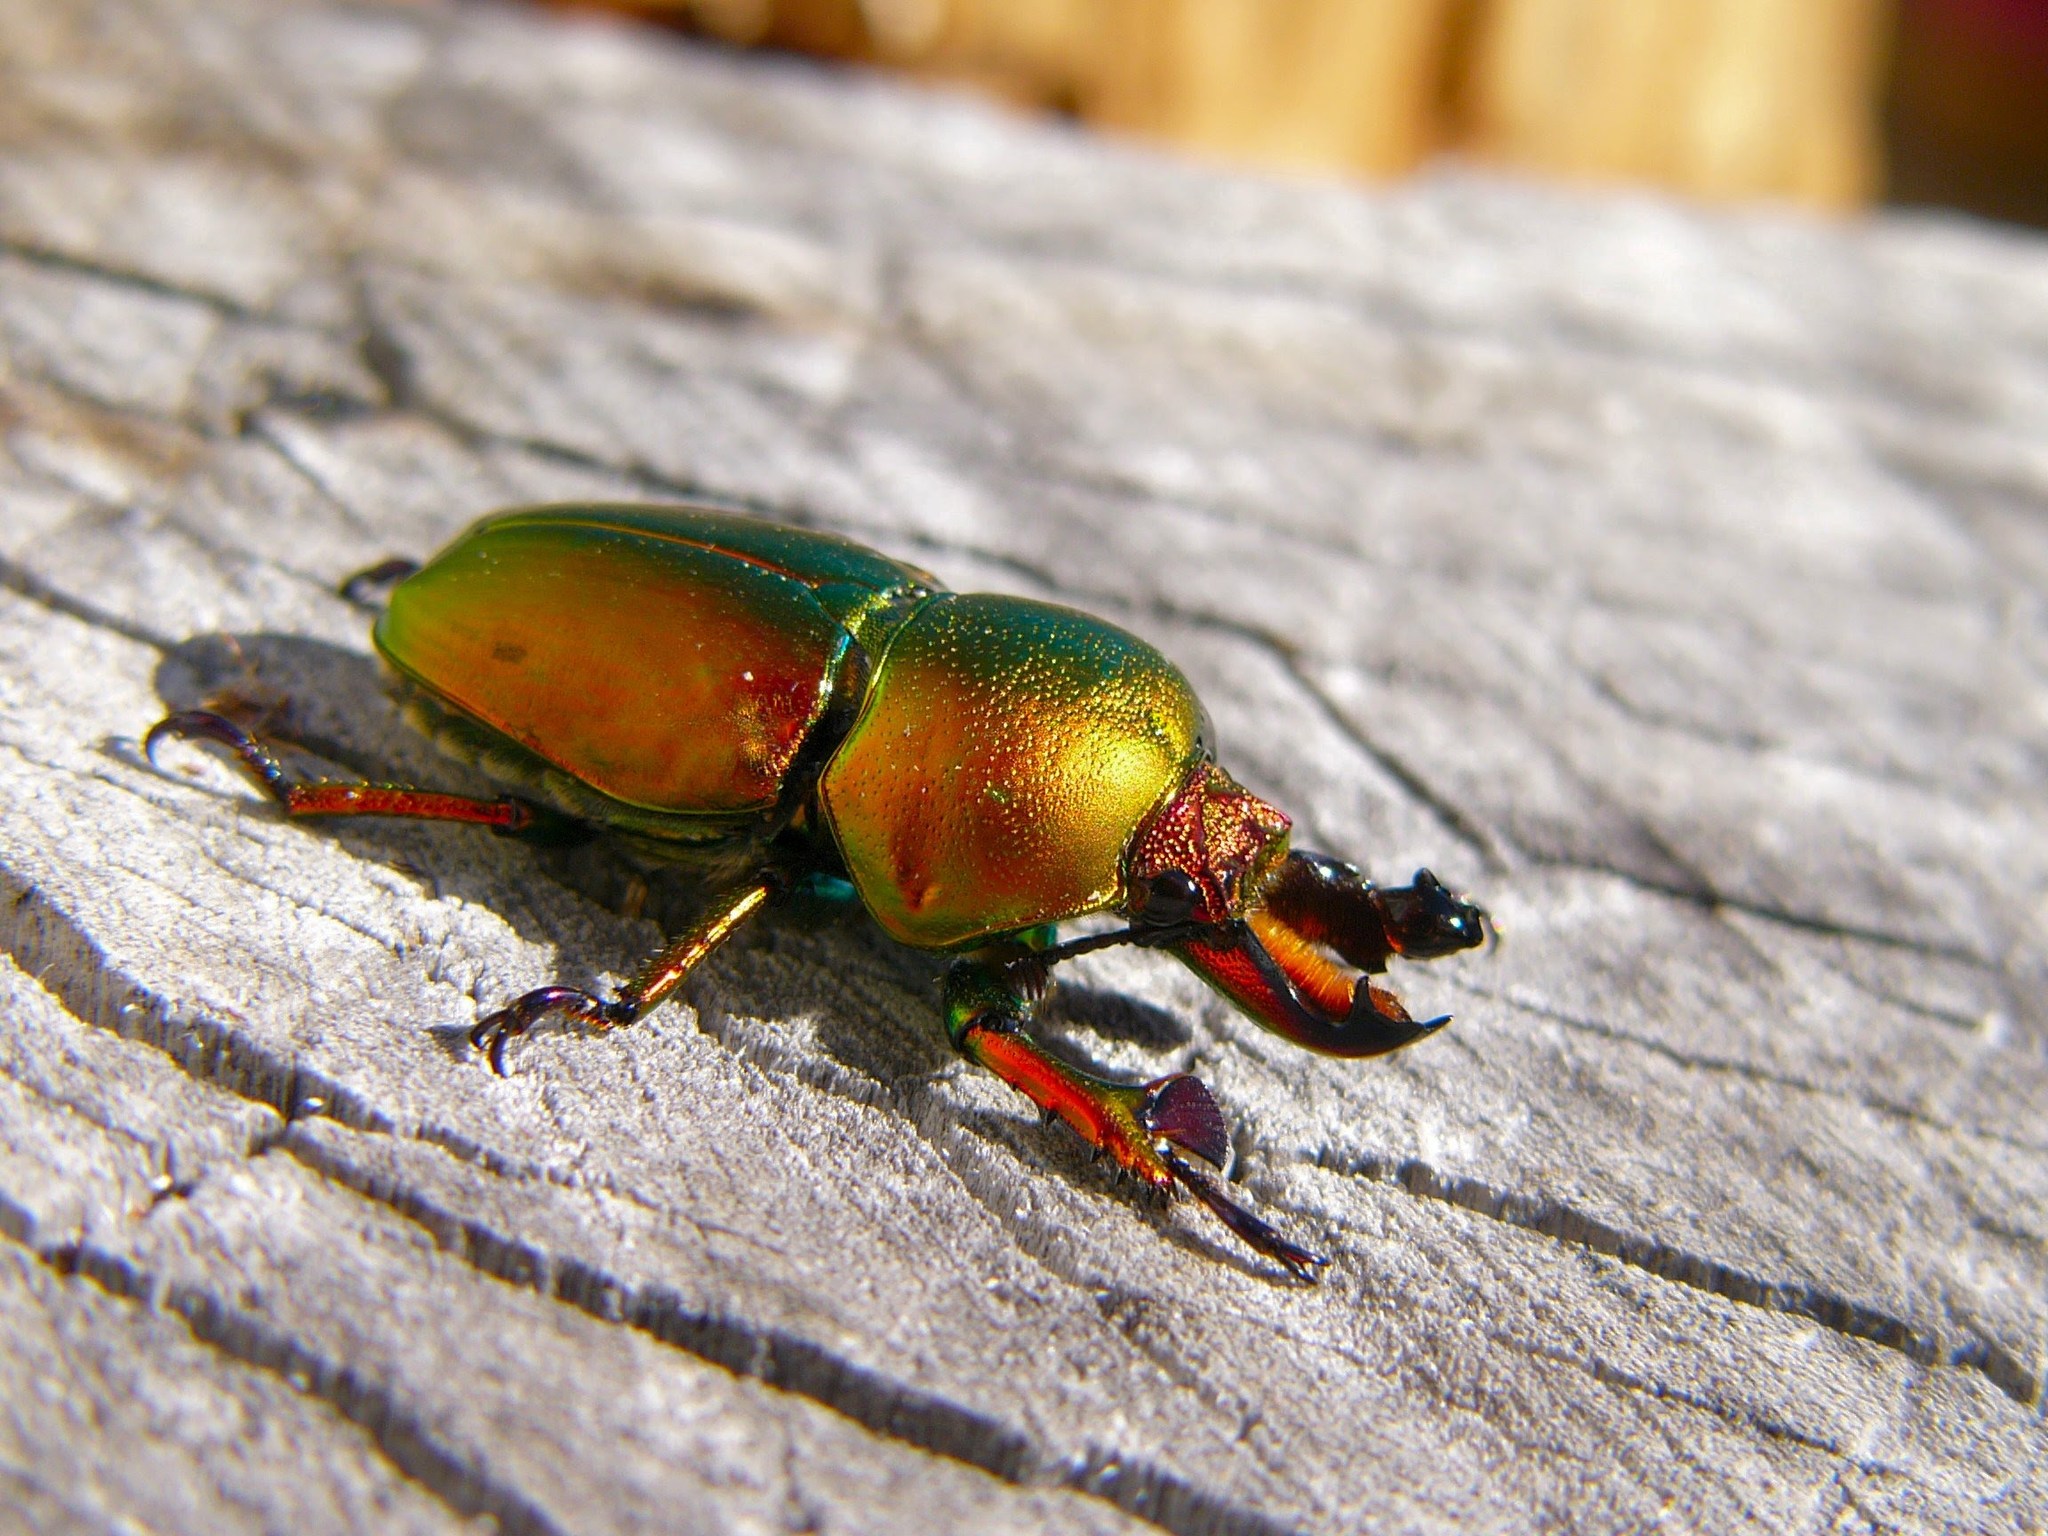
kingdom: Animalia
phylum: Arthropoda
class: Insecta
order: Coleoptera
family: Lucanidae
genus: Lamprima
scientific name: Lamprima aurata
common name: Golden stag beetle
